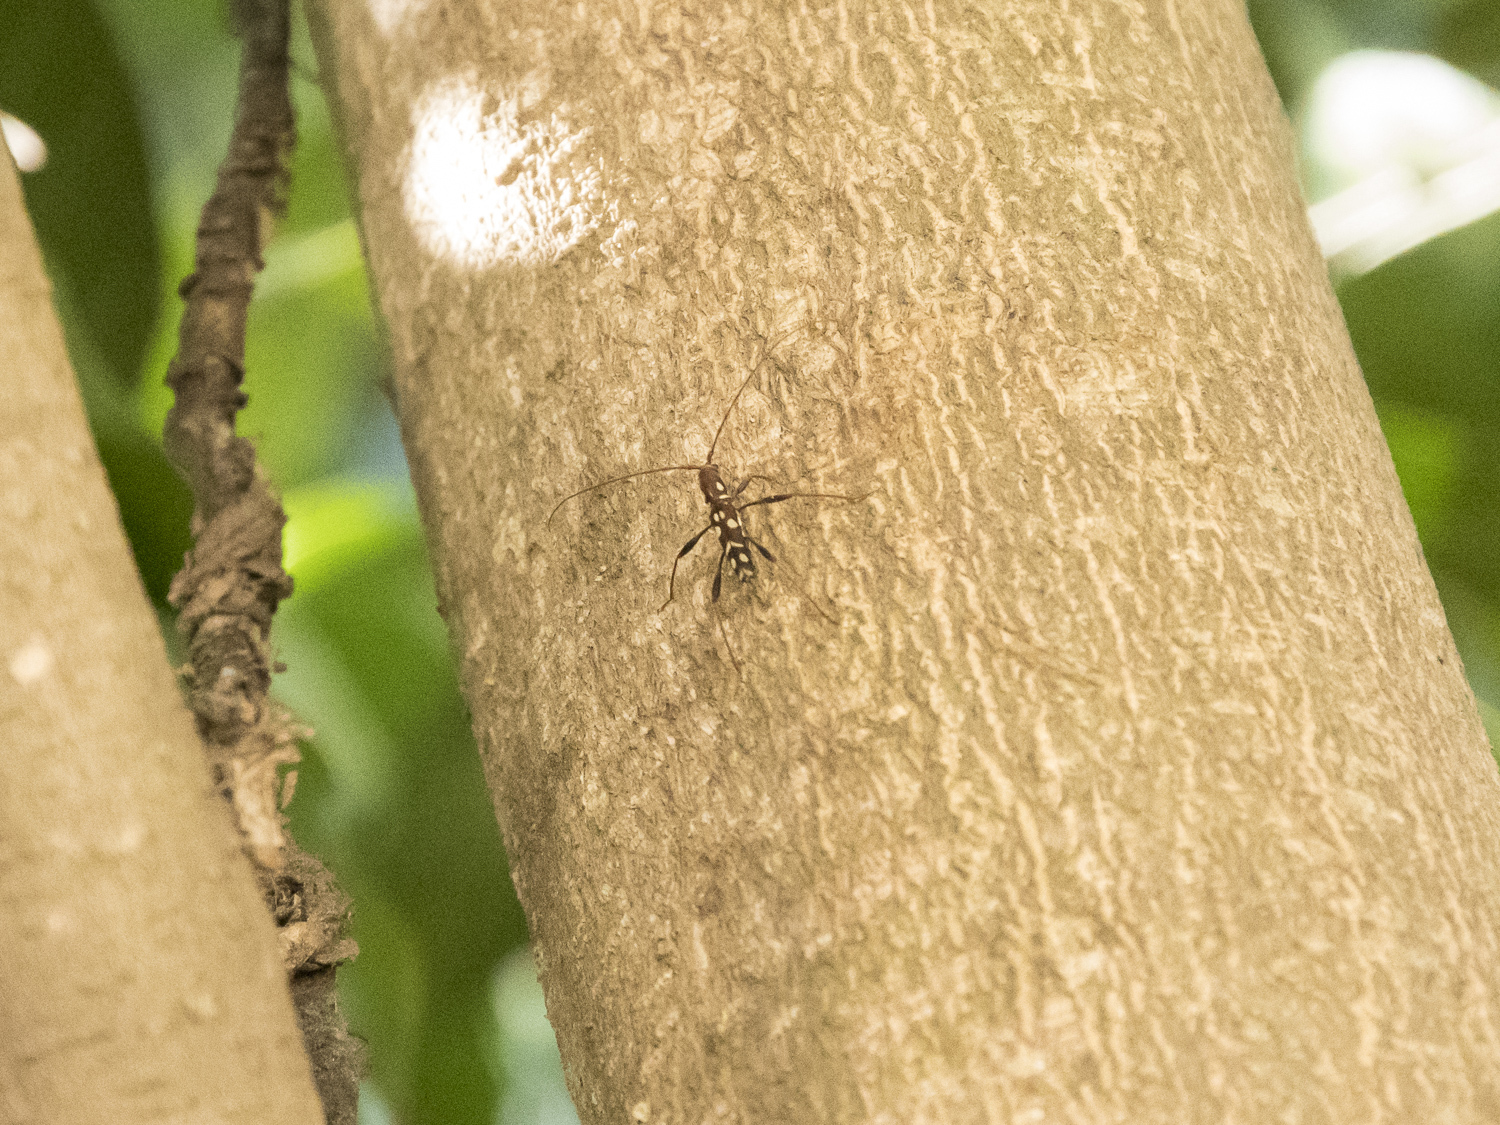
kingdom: Animalia
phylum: Arthropoda
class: Insecta
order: Coleoptera
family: Cerambycidae
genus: Clytocera
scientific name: Clytocera chionospila
